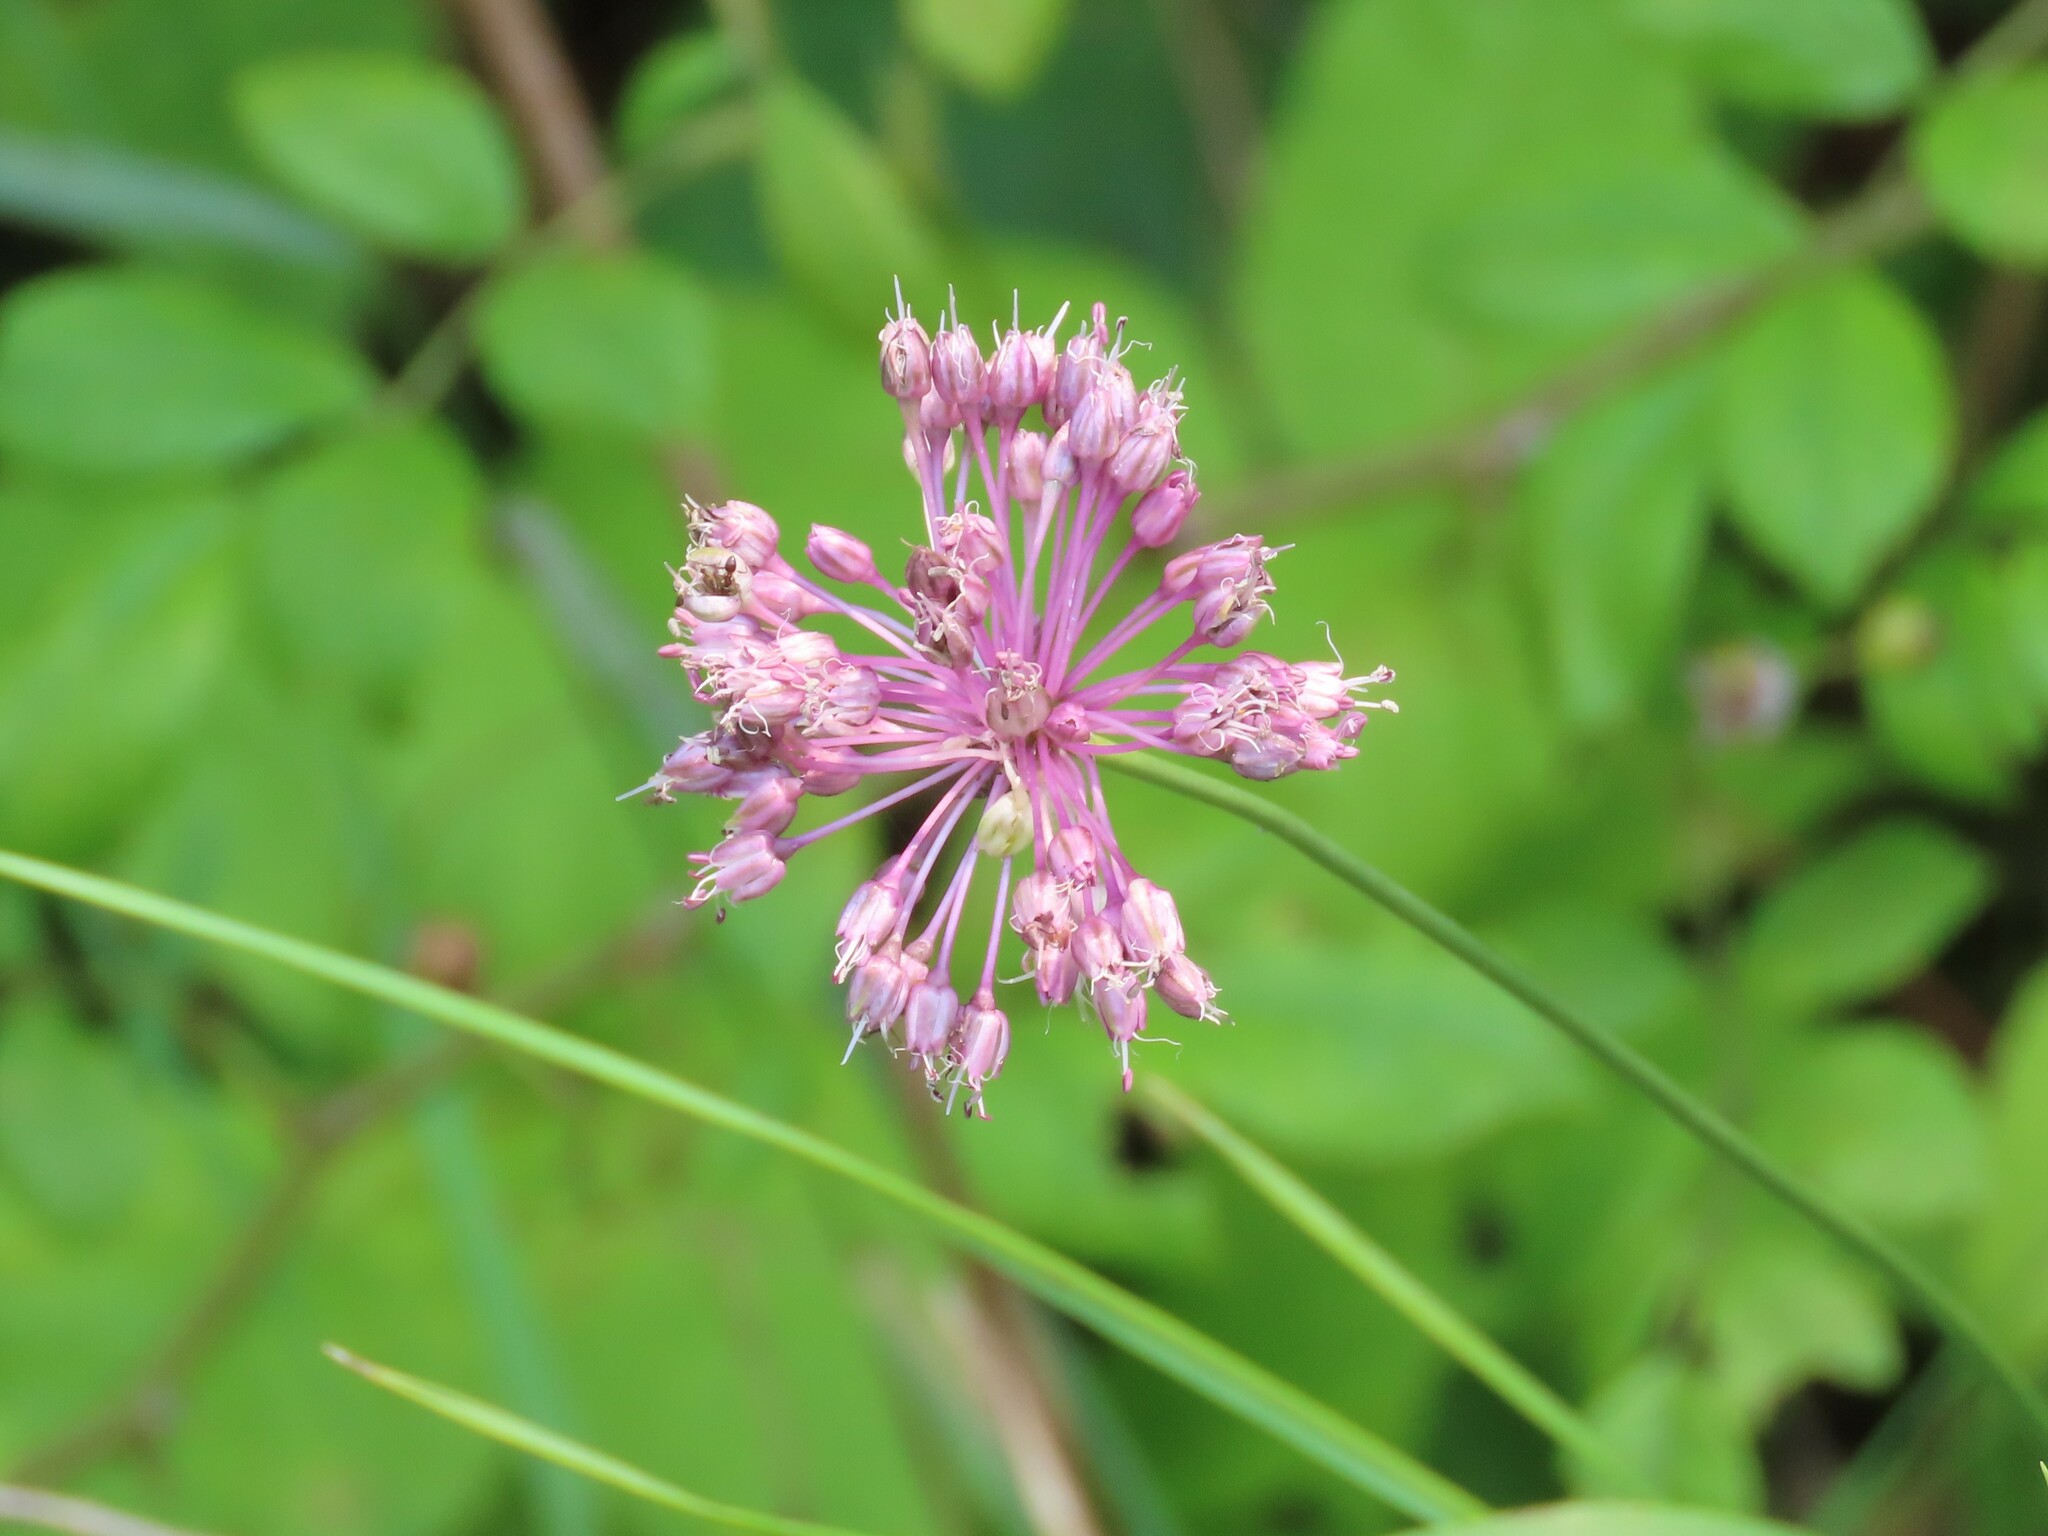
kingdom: Plantae
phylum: Tracheophyta
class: Liliopsida
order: Asparagales
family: Amaryllidaceae
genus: Allium
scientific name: Allium vineale
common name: Crow garlic
